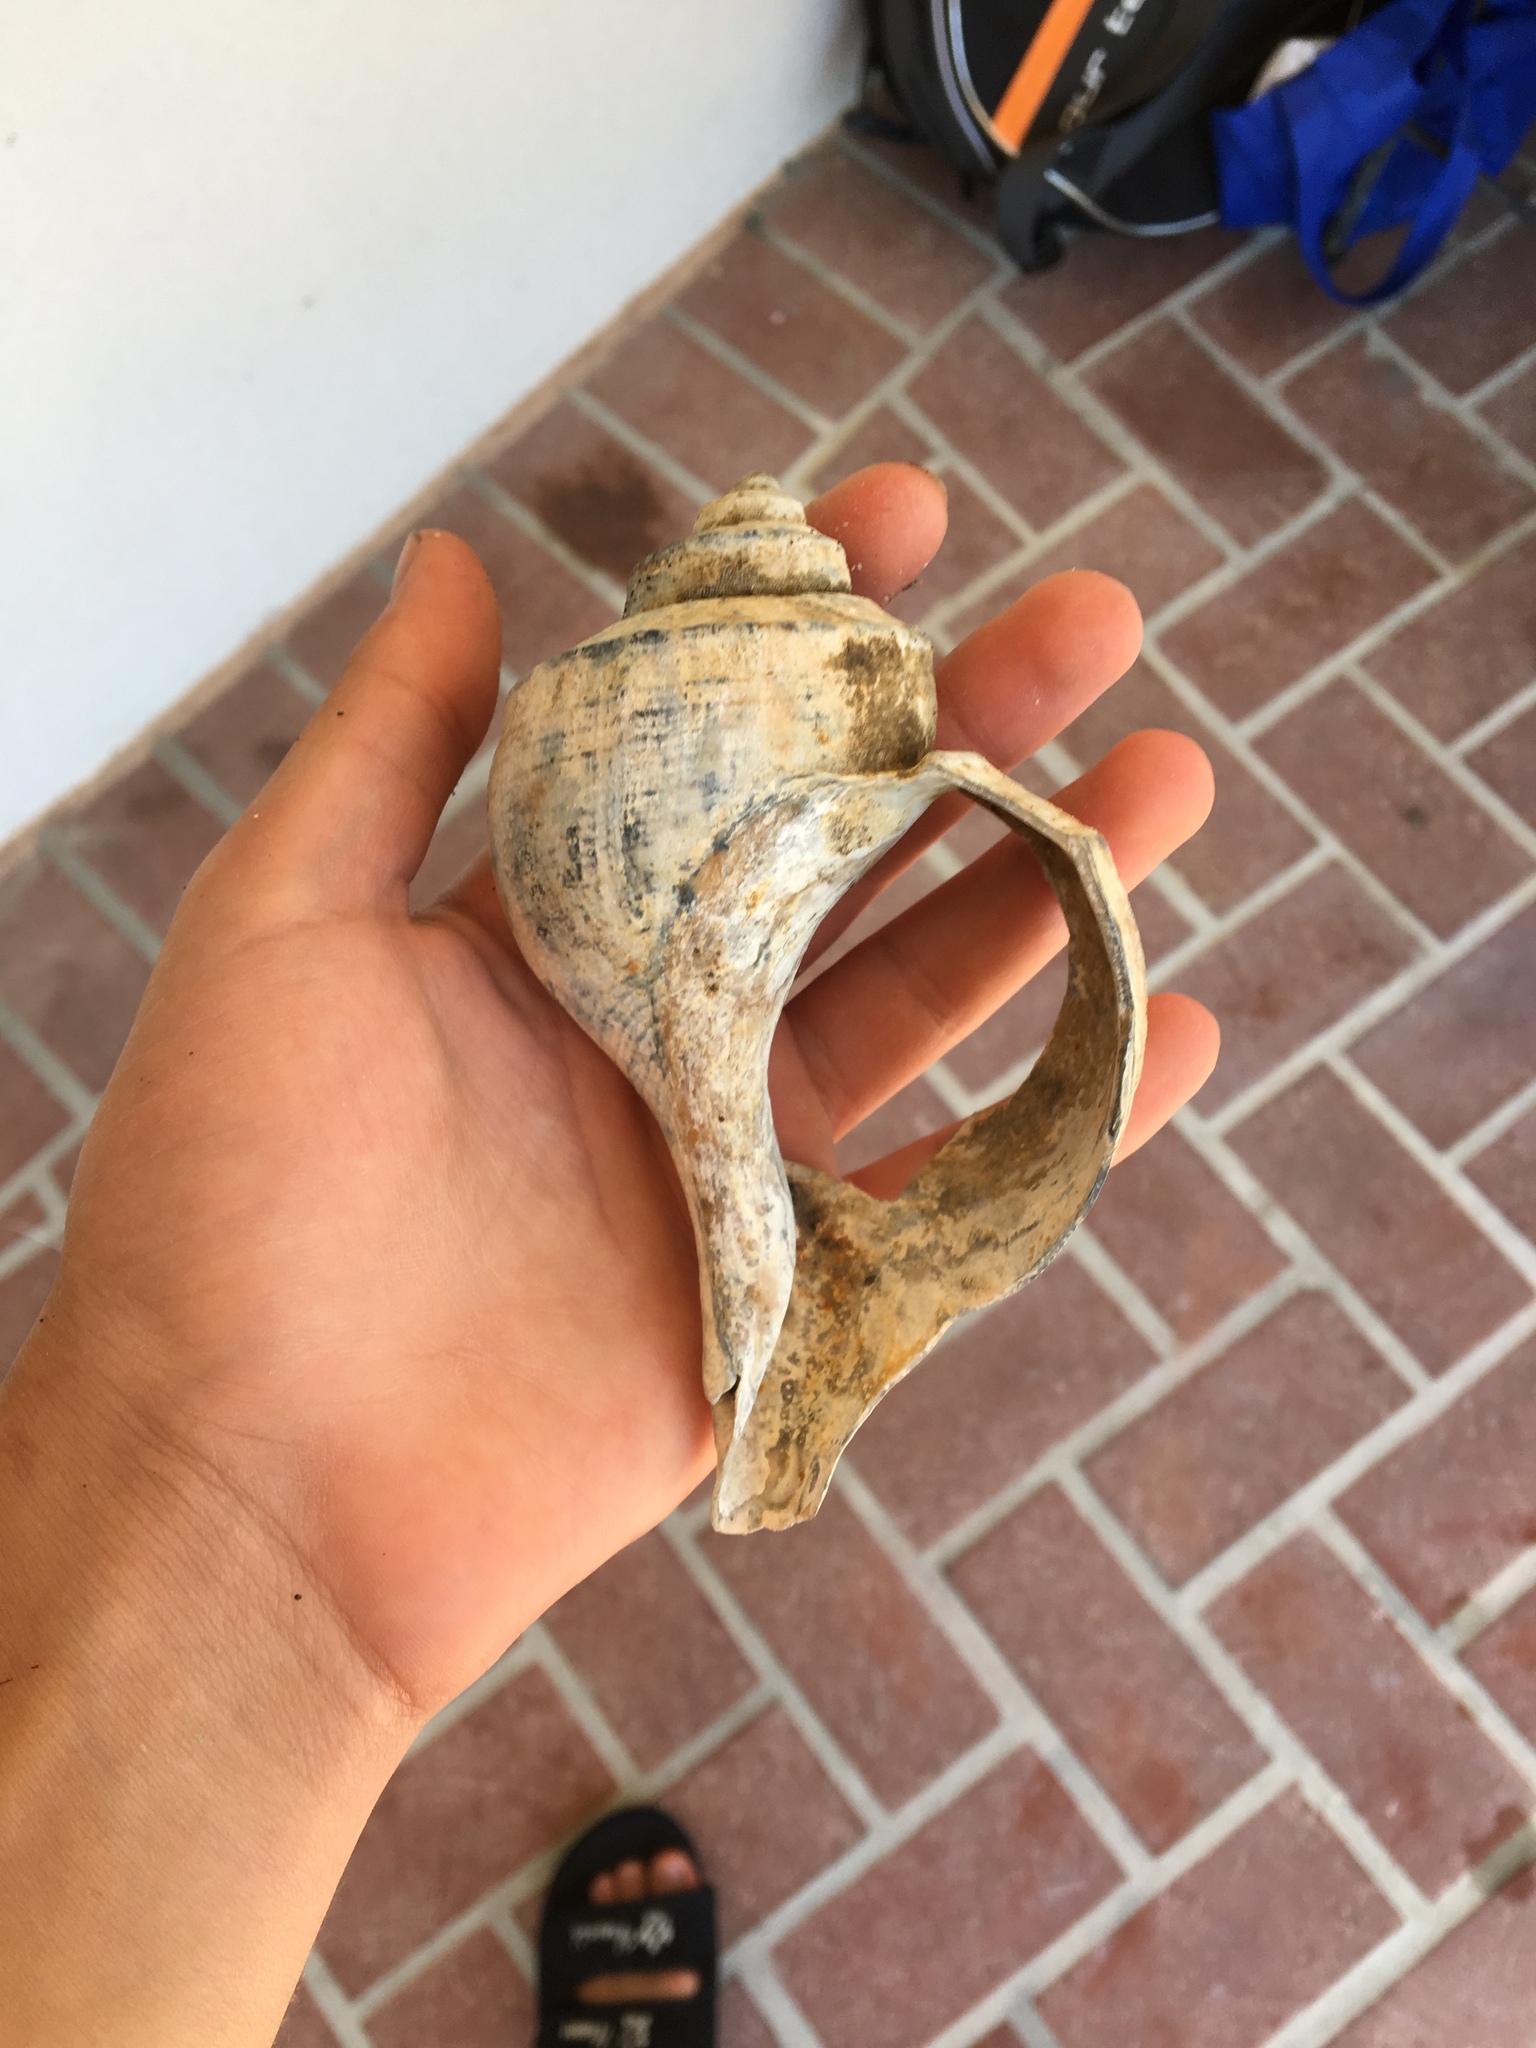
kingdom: Animalia
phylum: Mollusca
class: Gastropoda
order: Neogastropoda
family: Busyconidae
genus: Busycotypus
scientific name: Busycotypus canaliculatus
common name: Channeled whelk
